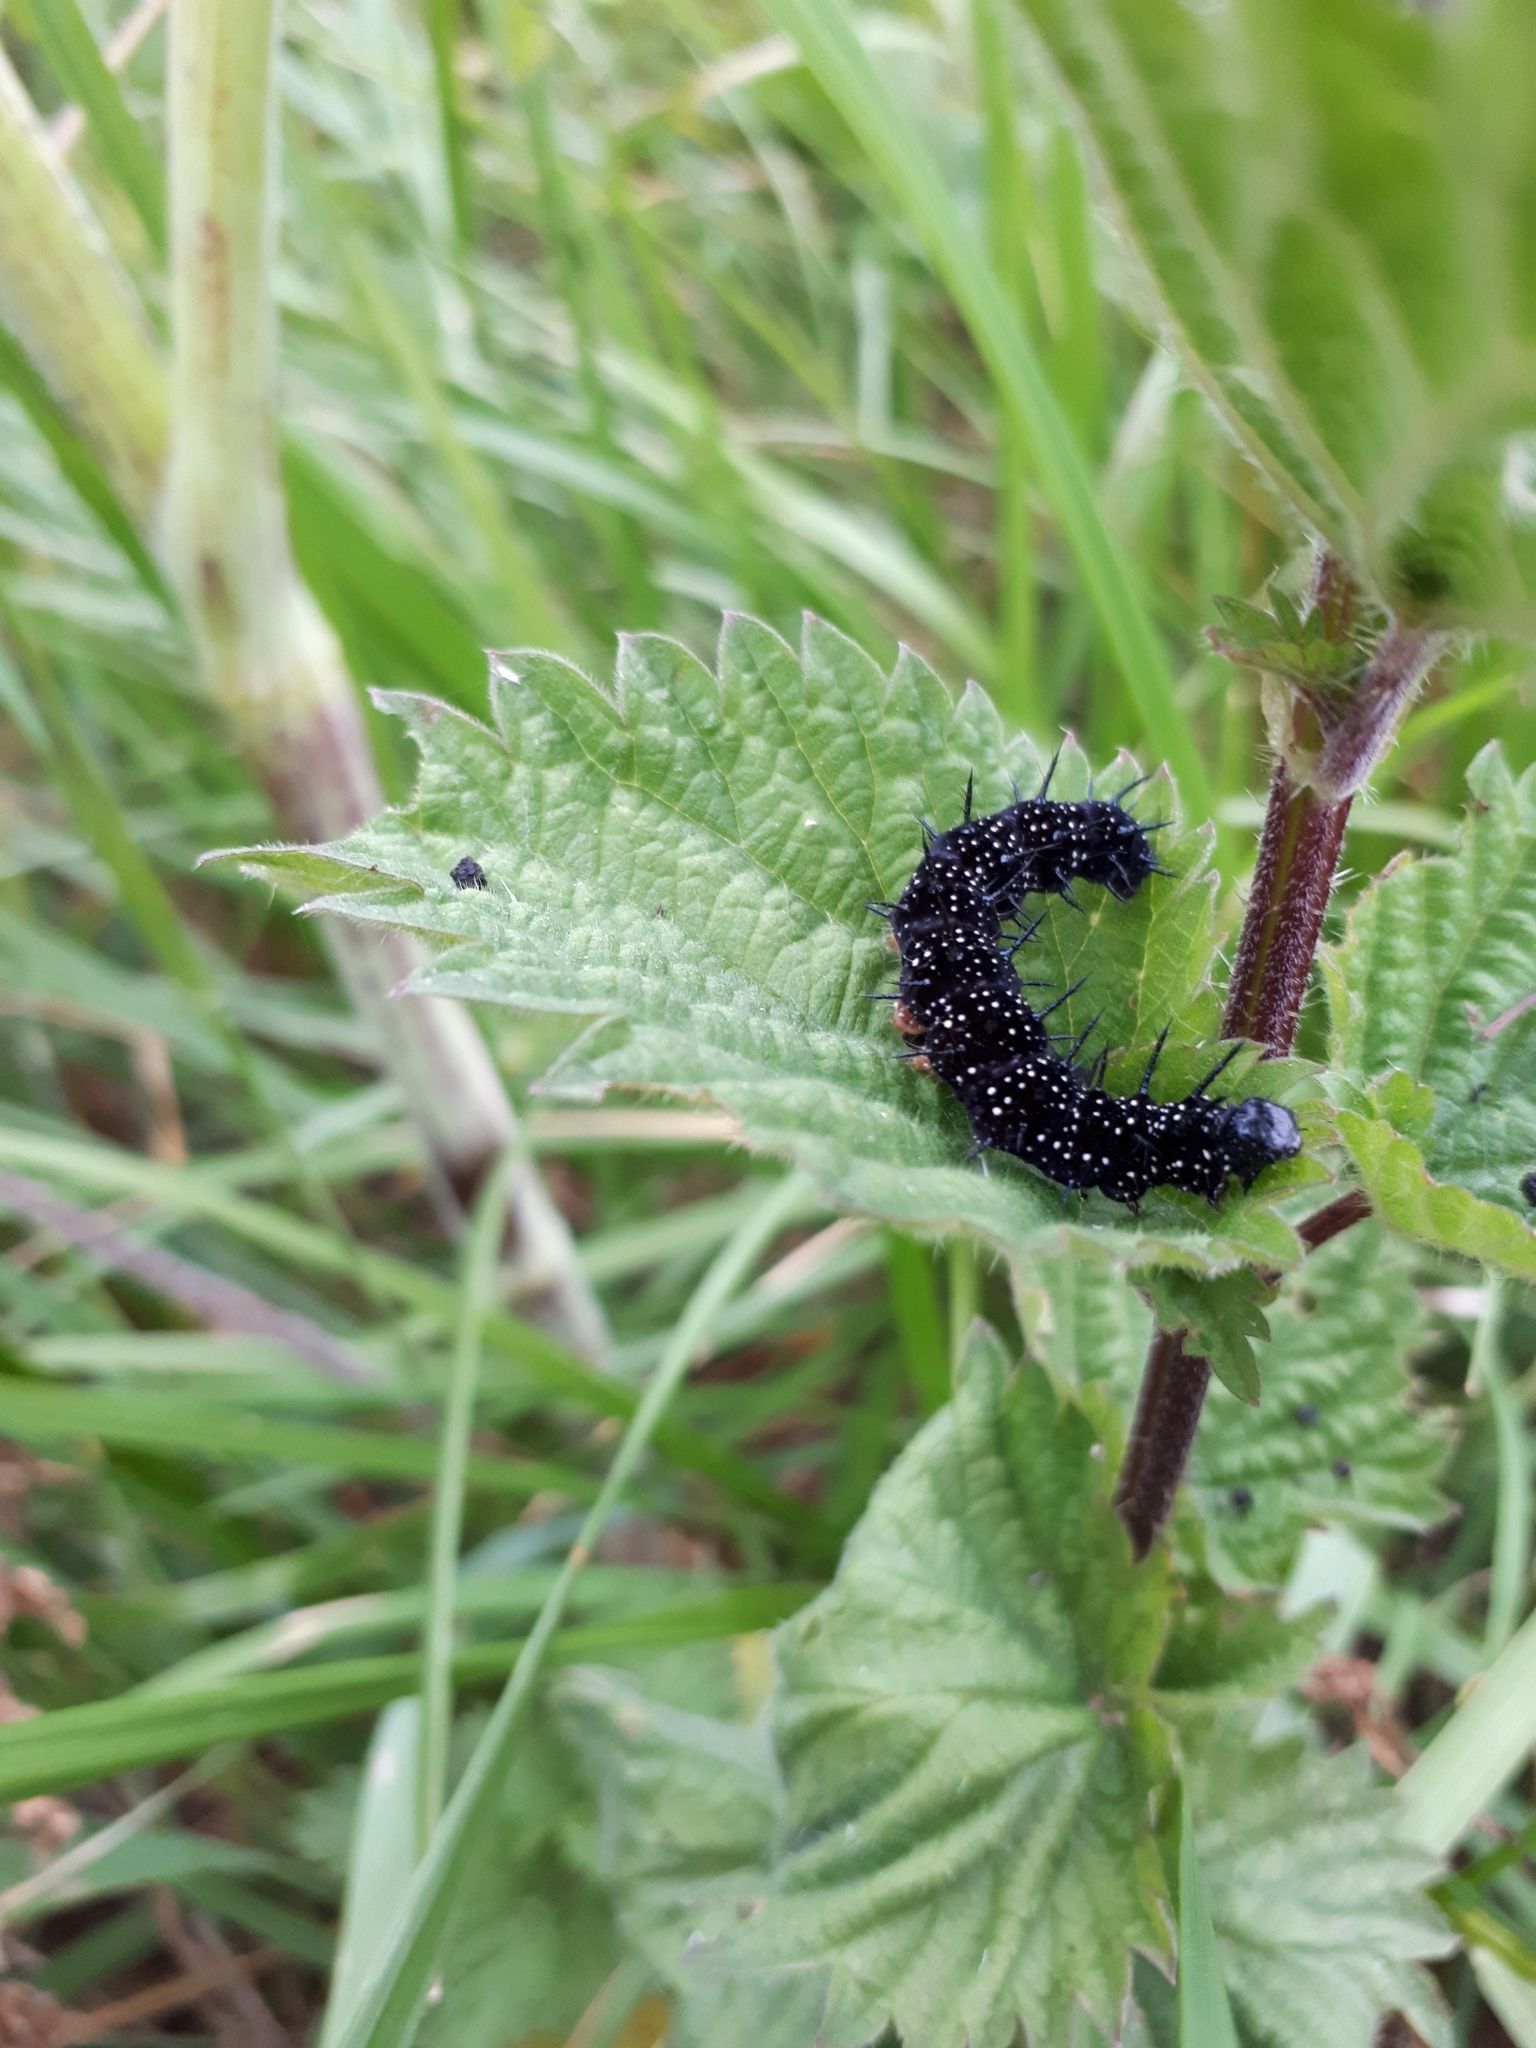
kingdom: Animalia
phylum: Arthropoda
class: Insecta
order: Lepidoptera
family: Nymphalidae
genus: Aglais
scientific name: Aglais io
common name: Peacock
